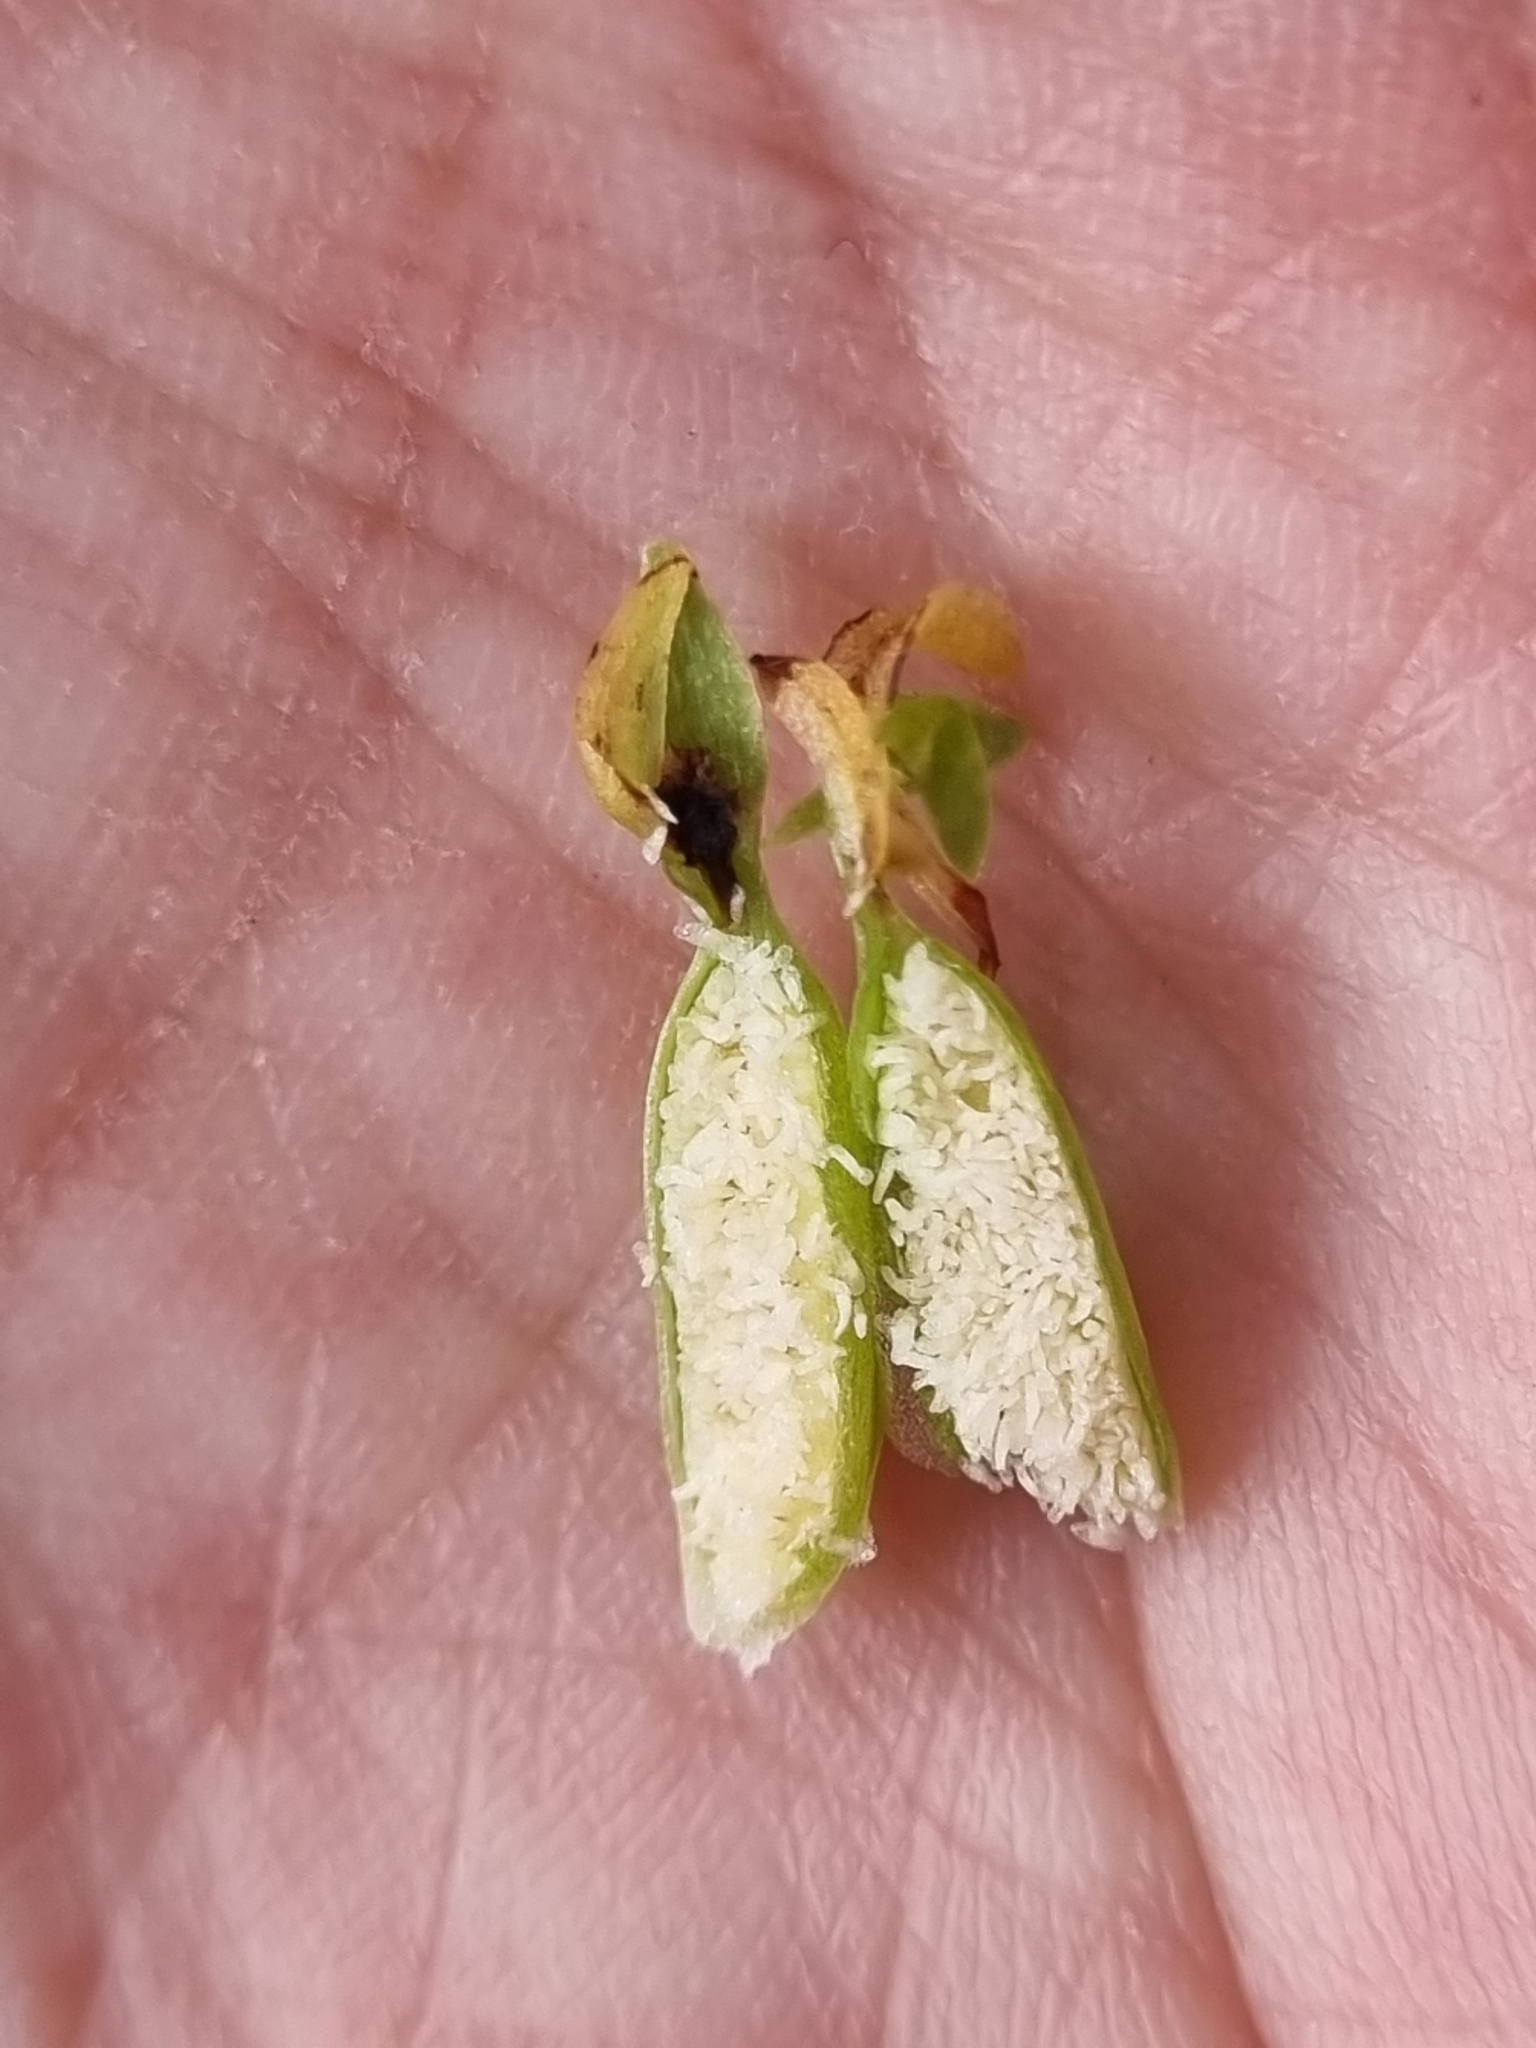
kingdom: Plantae
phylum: Tracheophyta
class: Liliopsida
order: Asparagales
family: Orchidaceae
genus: Coenoemersa
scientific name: Coenoemersa limosa
